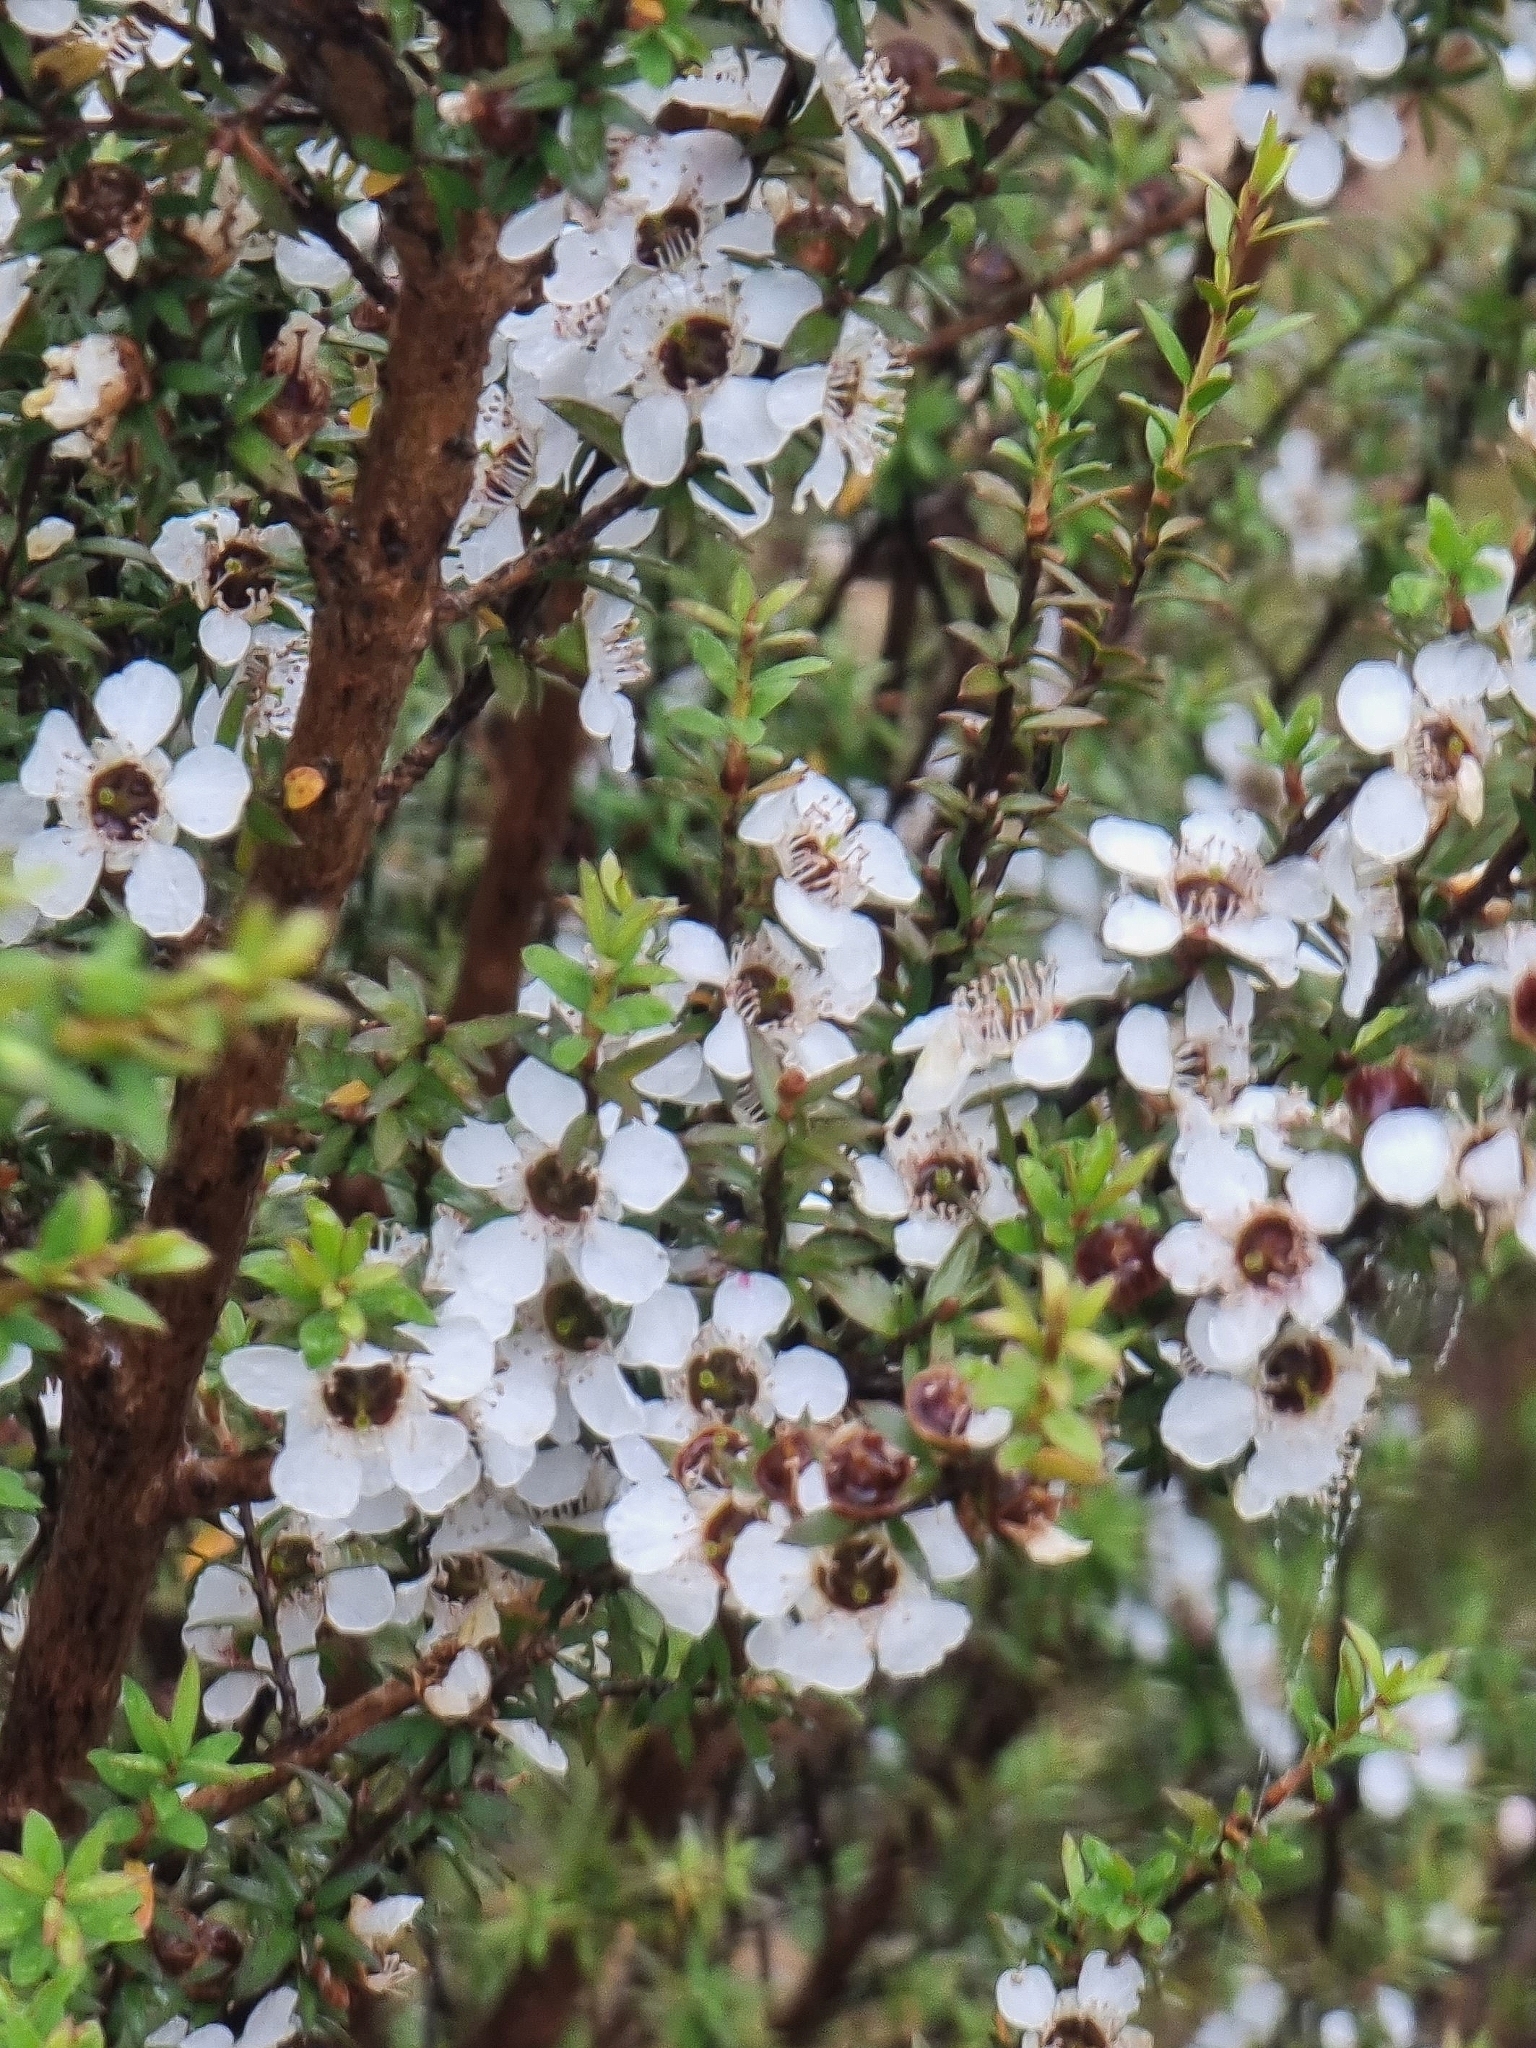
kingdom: Plantae
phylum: Tracheophyta
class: Magnoliopsida
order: Myrtales
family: Myrtaceae
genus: Leptospermum
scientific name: Leptospermum scoparium
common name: Broom tea-tree
